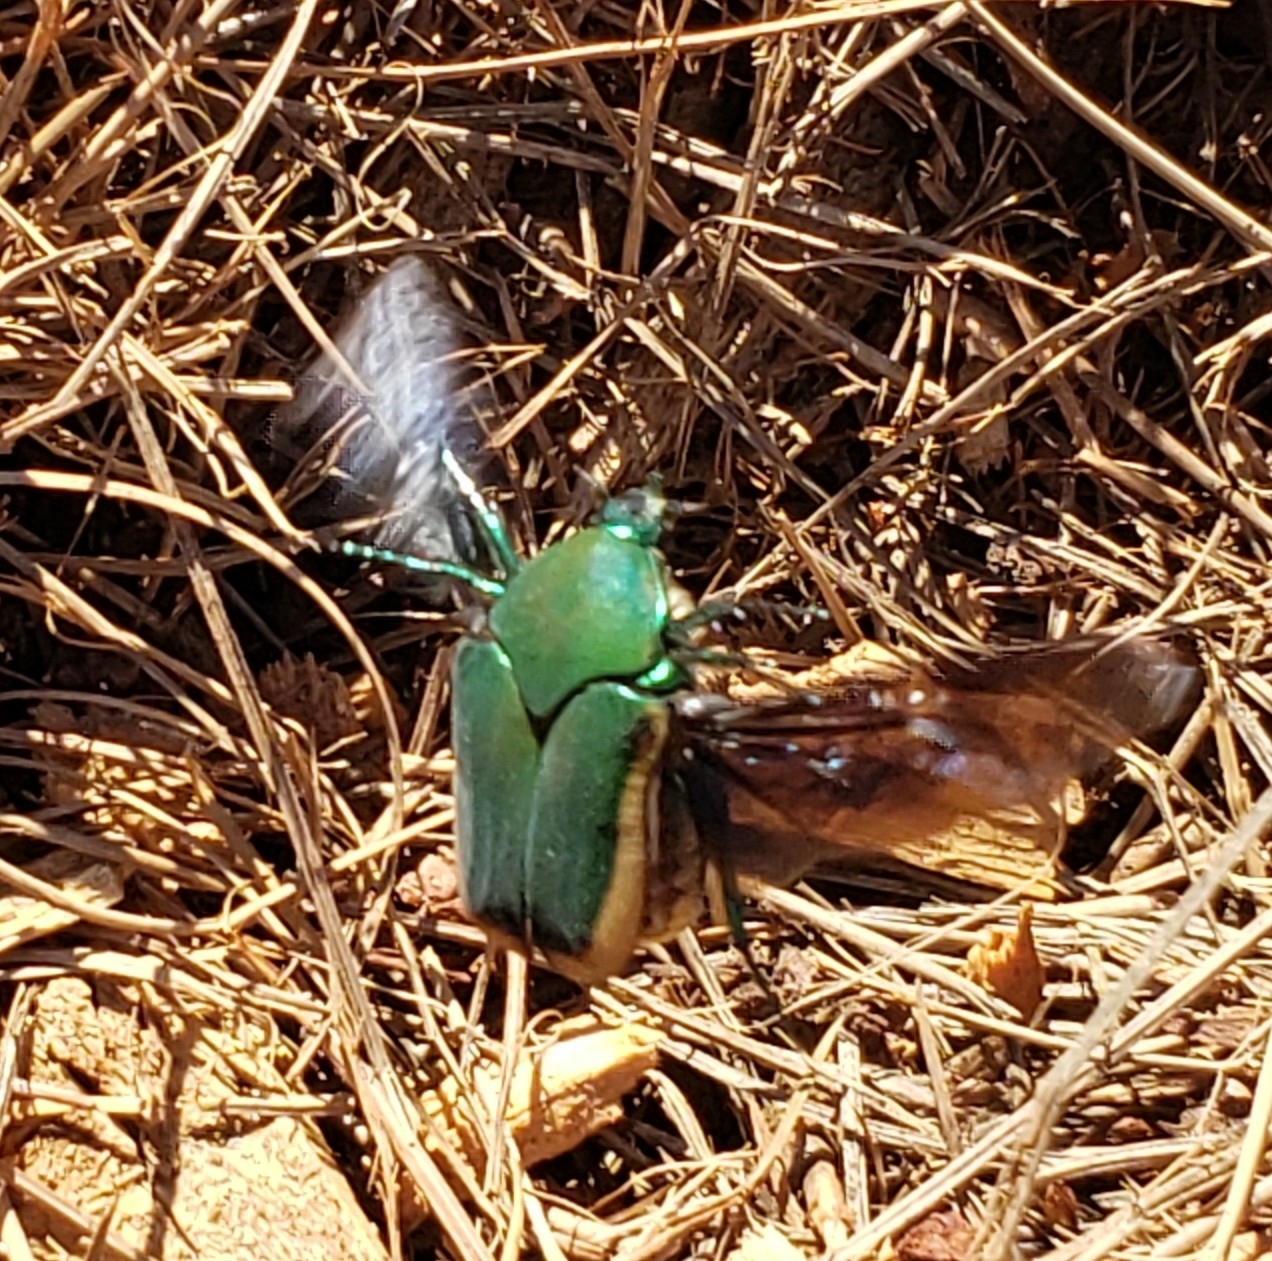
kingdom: Animalia
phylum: Arthropoda
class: Insecta
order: Coleoptera
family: Scarabaeidae
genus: Cotinis
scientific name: Cotinis mutabilis
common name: Figeater beetle
